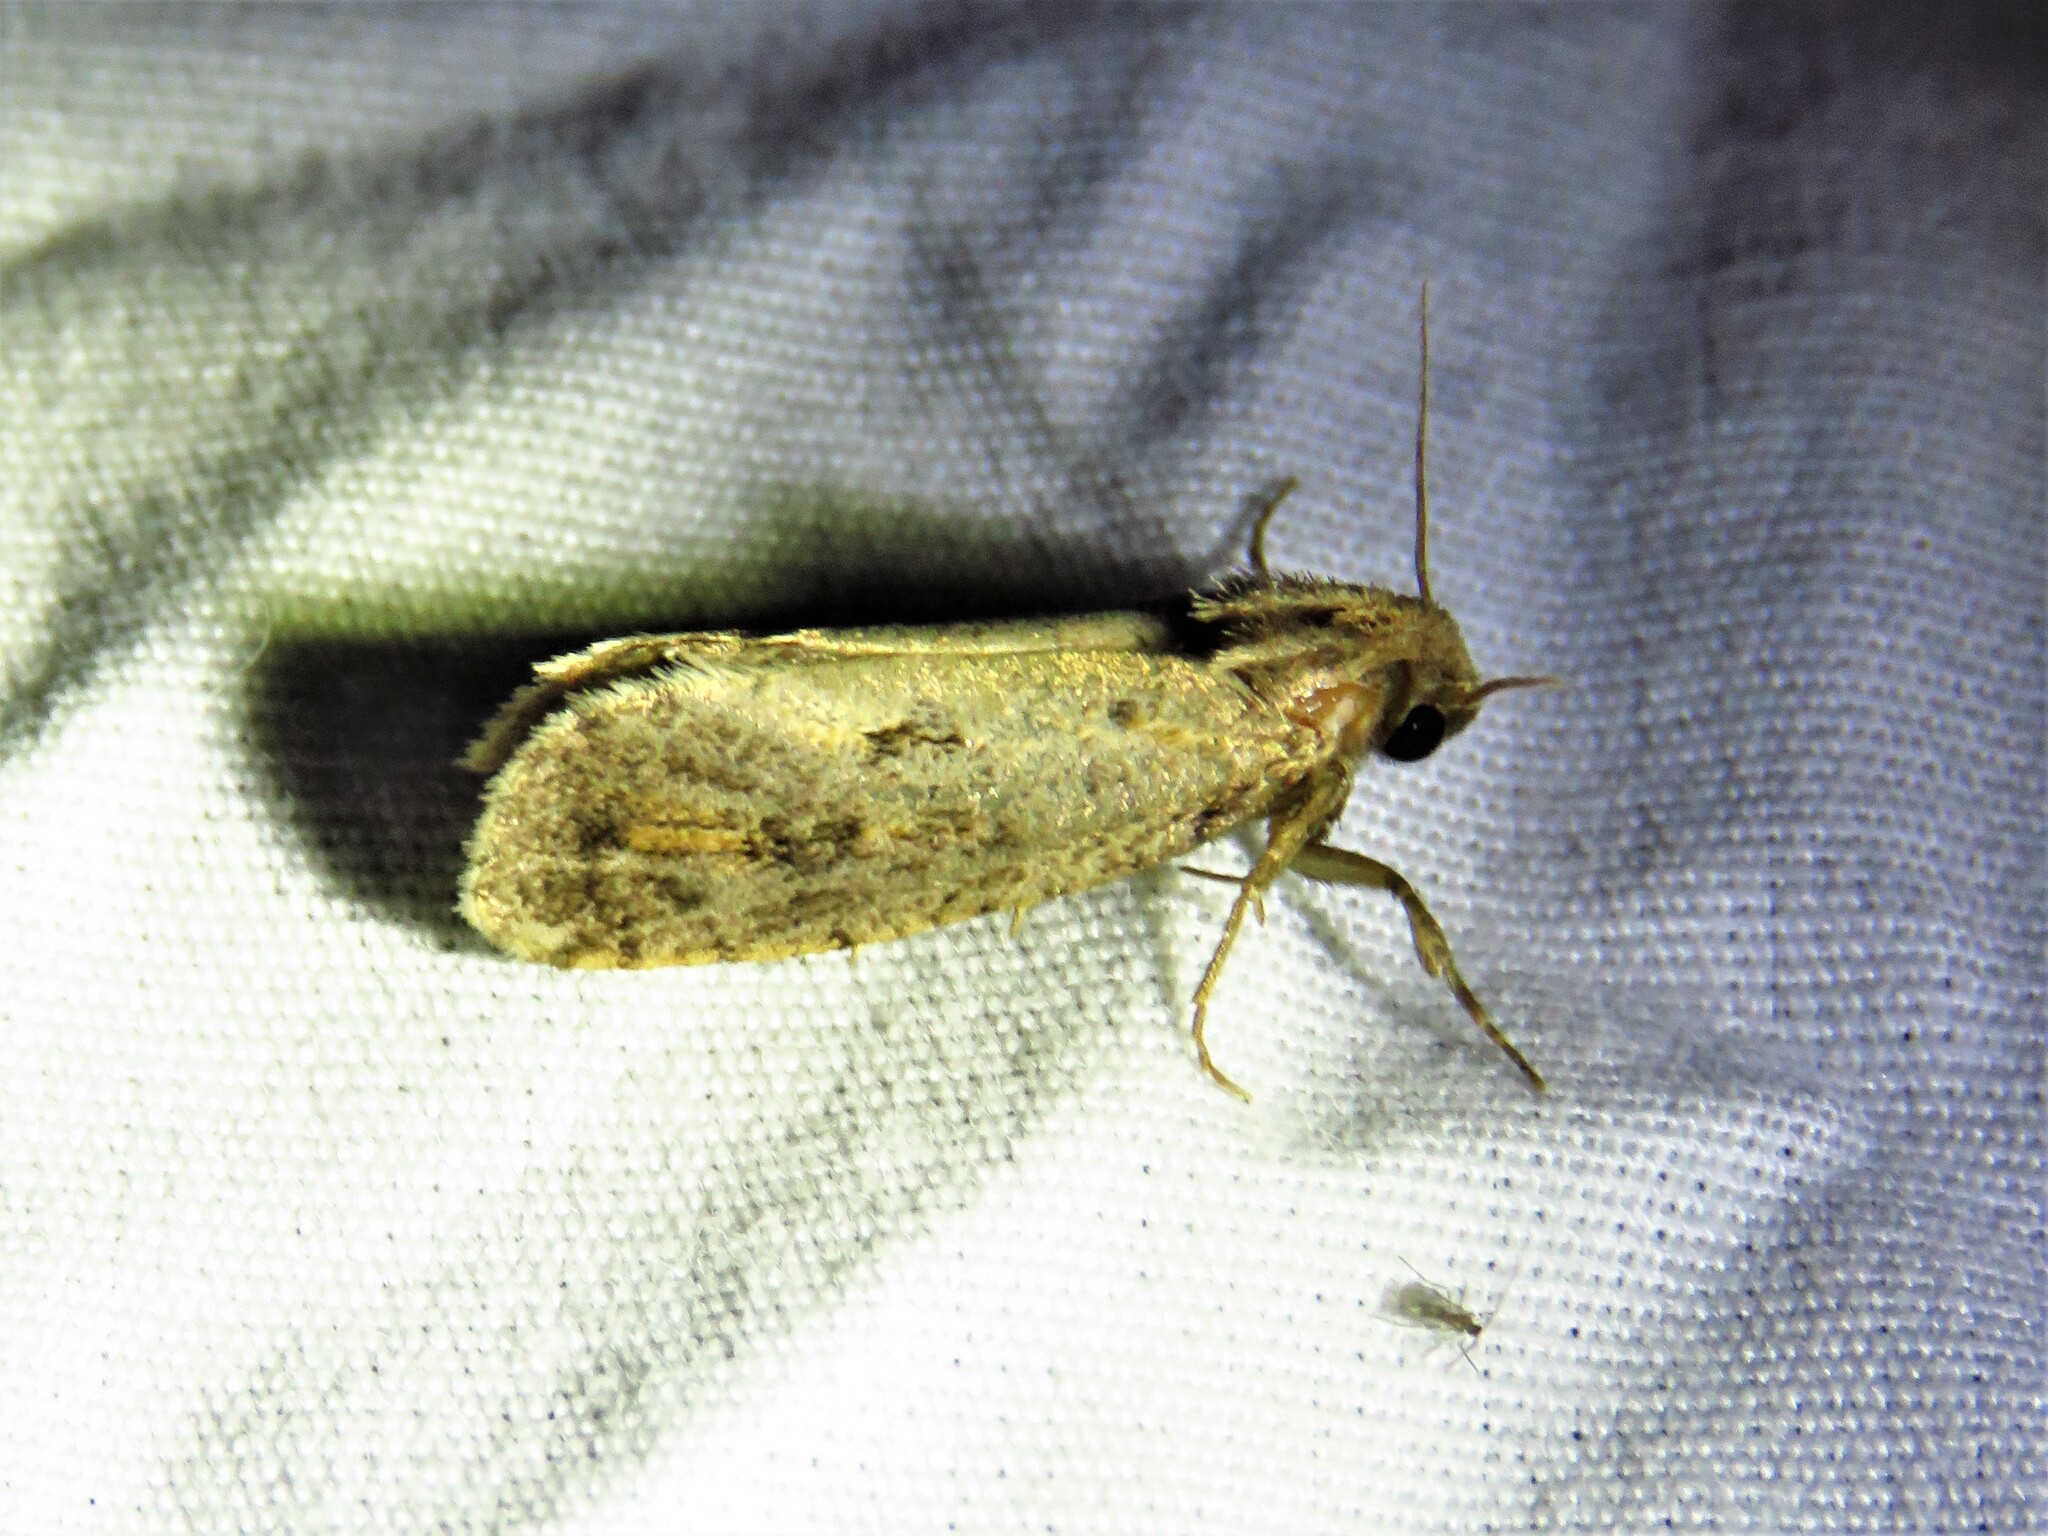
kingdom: Animalia
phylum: Arthropoda
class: Insecta
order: Lepidoptera
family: Tineidae
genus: Acrolophus
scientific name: Acrolophus popeanella
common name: Clemens' grass tubeworm moth
